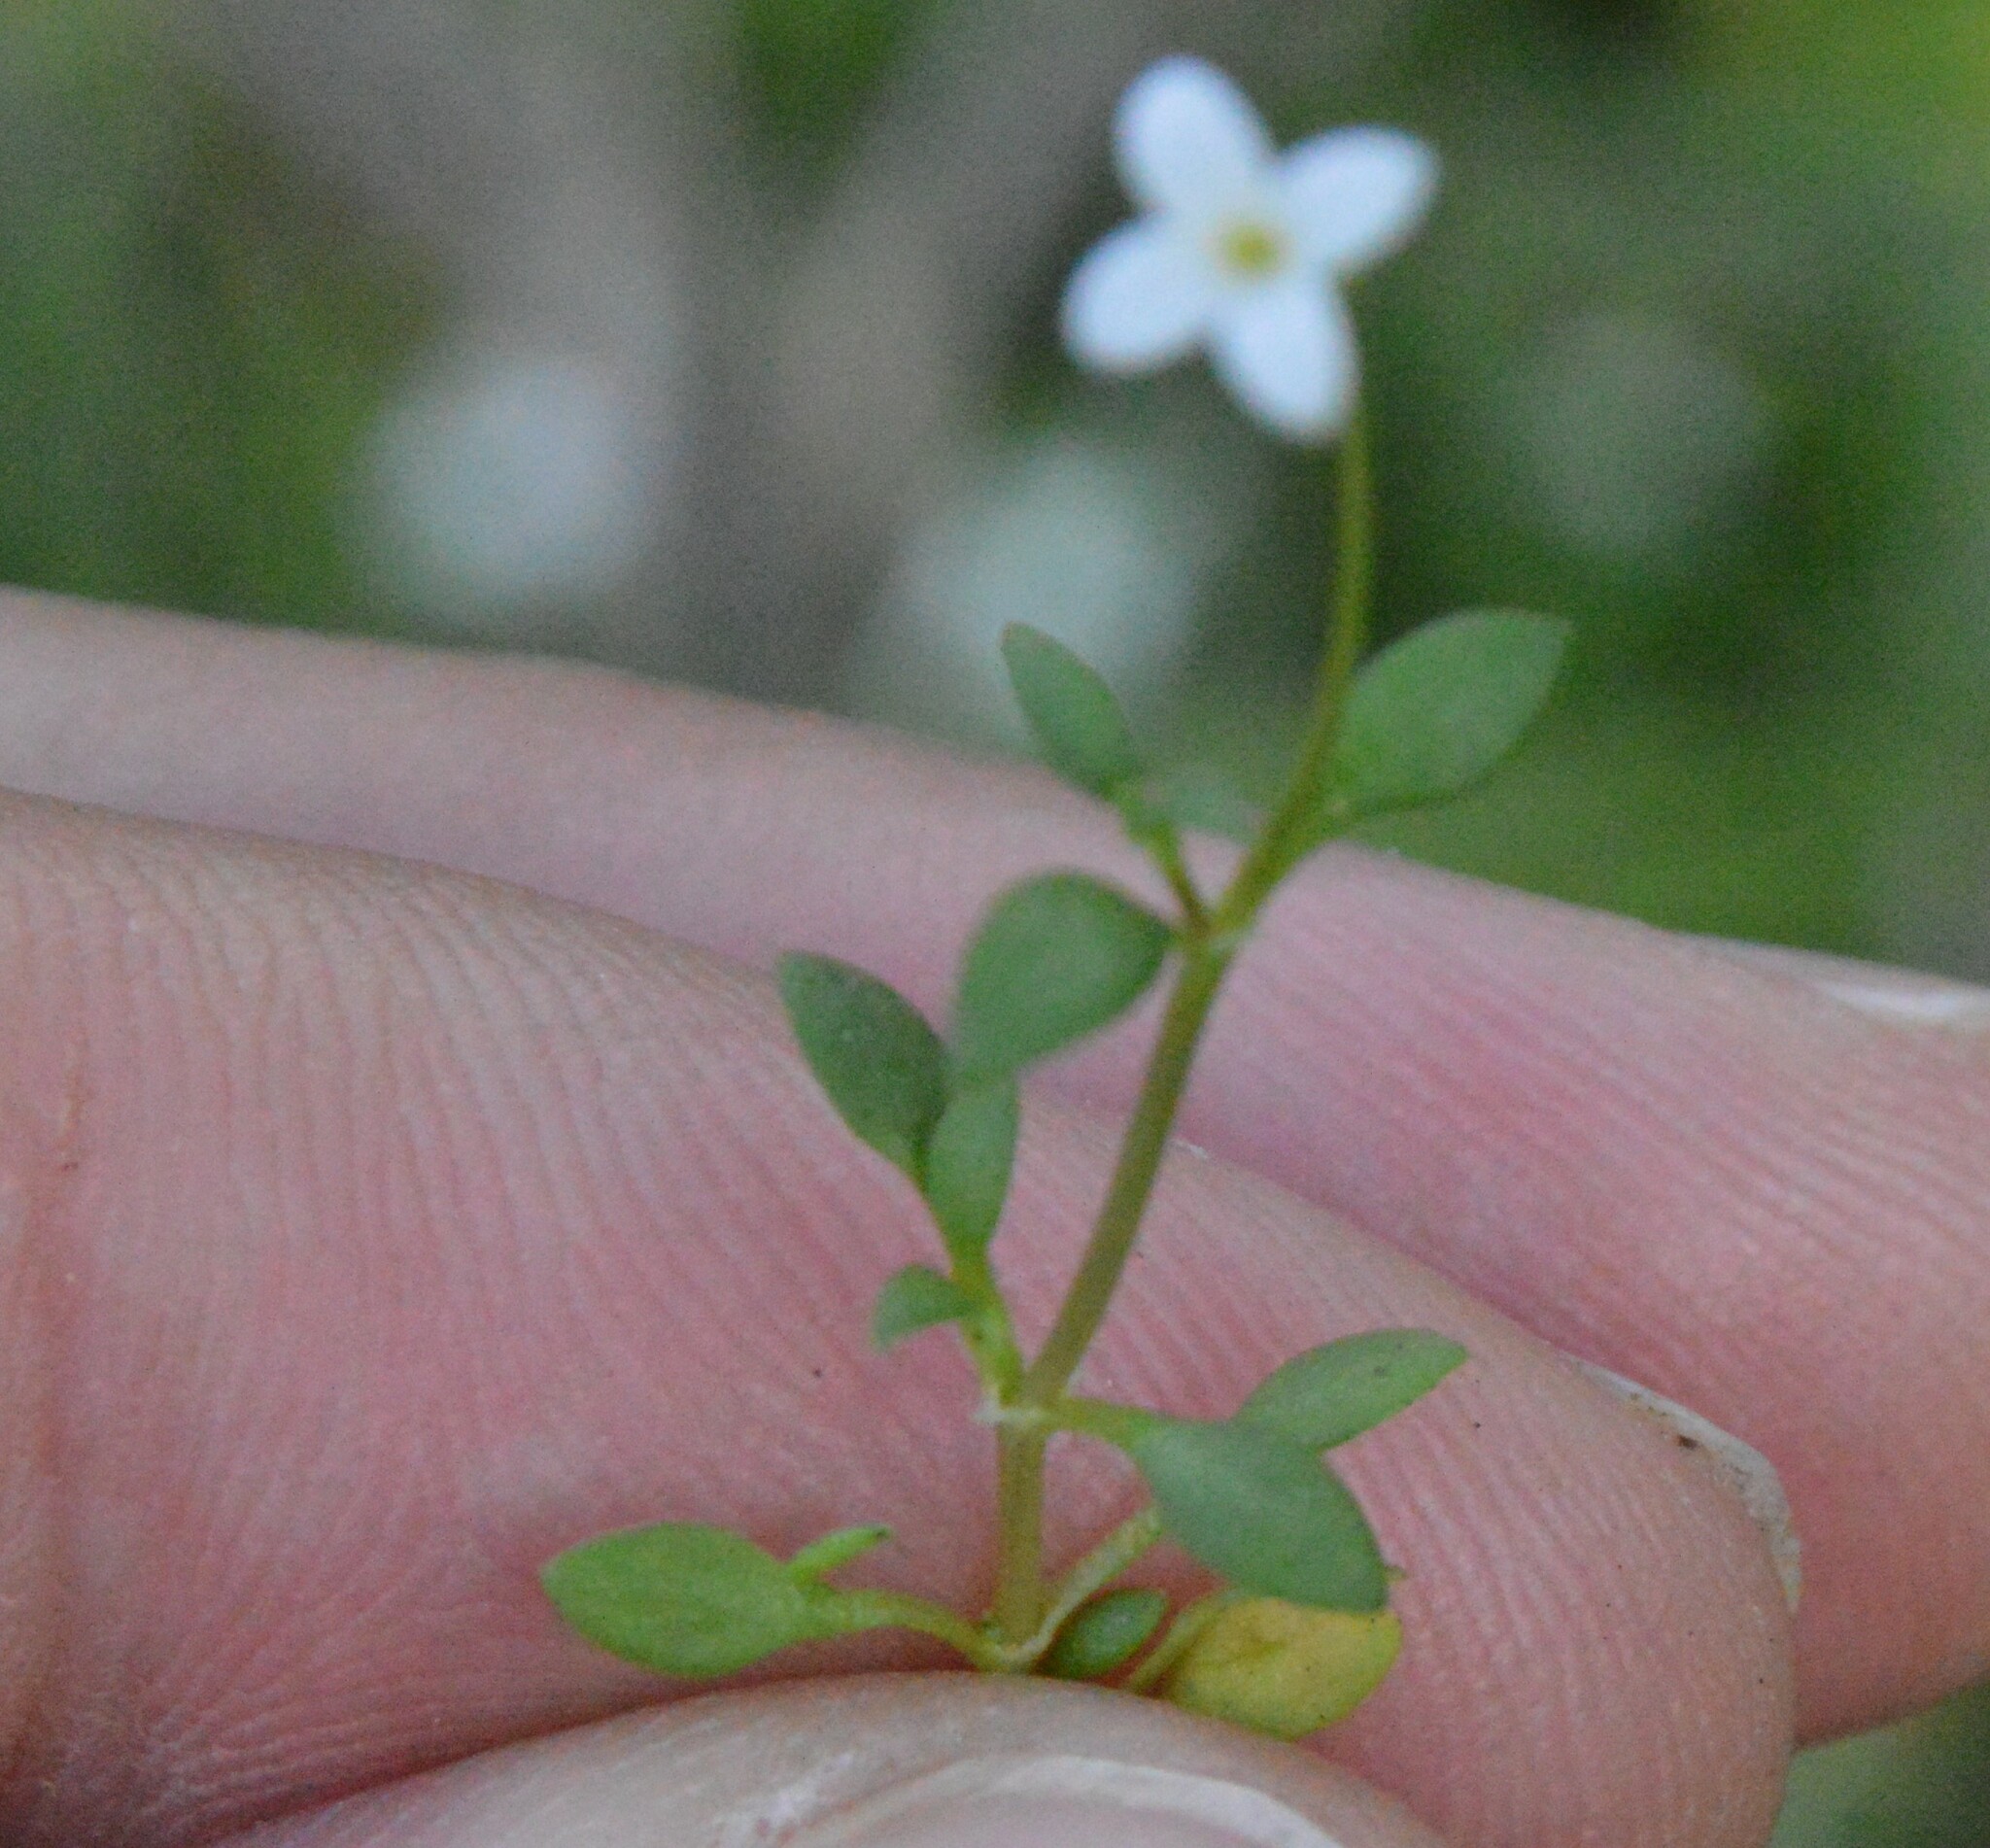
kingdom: Plantae
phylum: Tracheophyta
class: Magnoliopsida
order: Gentianales
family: Rubiaceae
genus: Houstonia
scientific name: Houstonia micrantha
